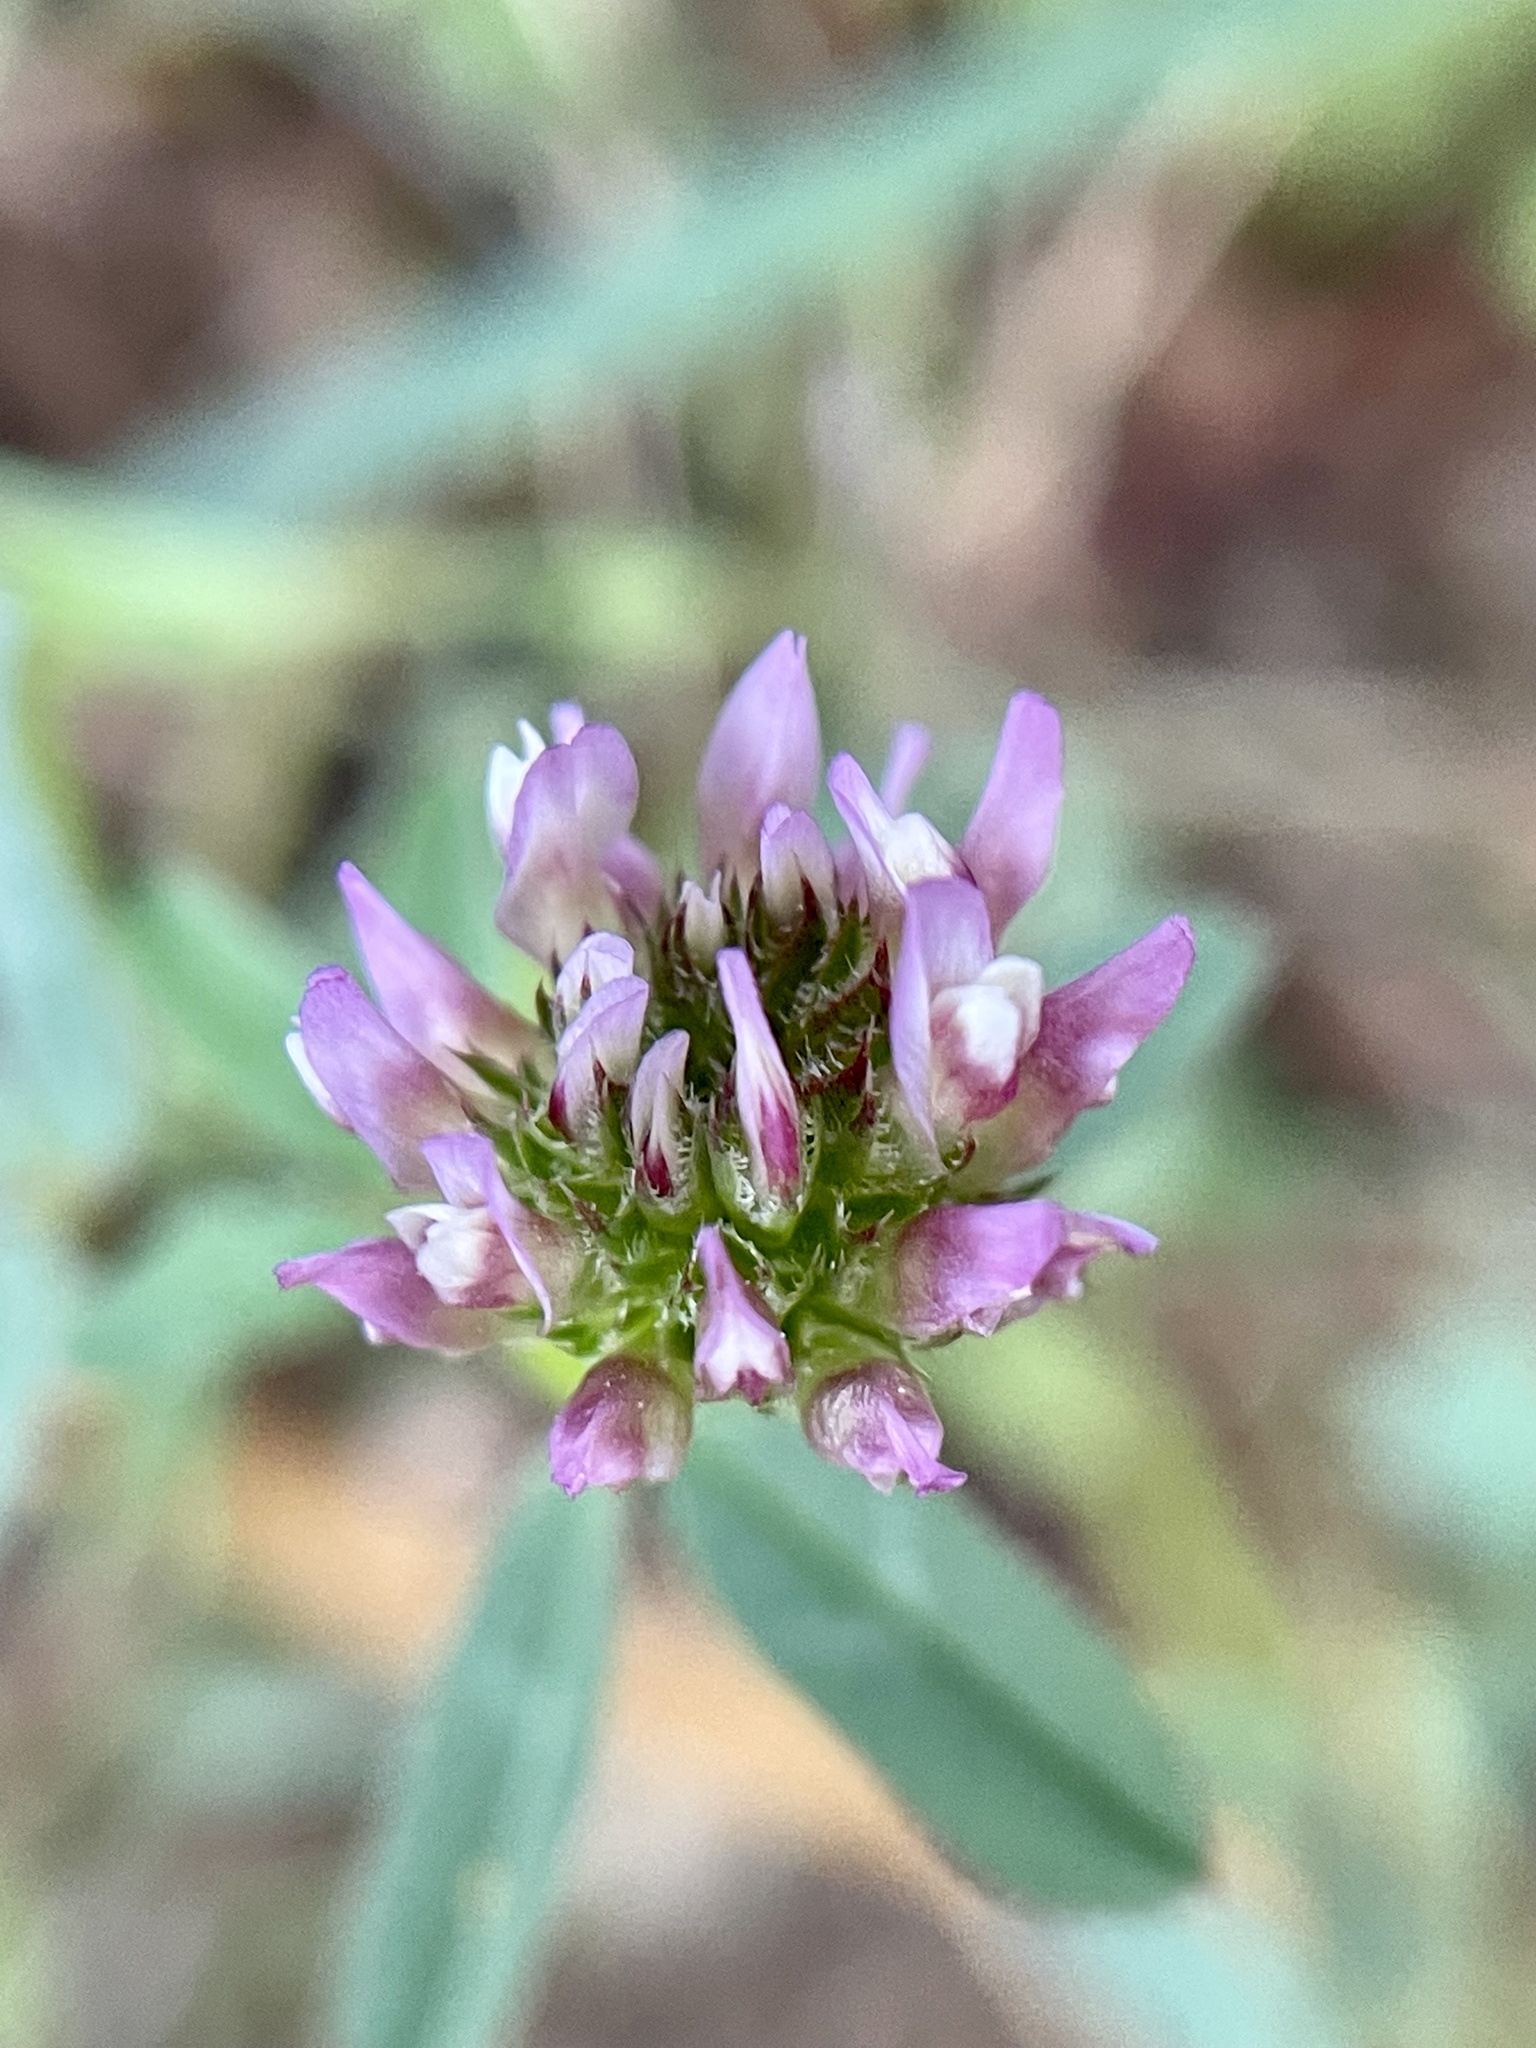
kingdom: Plantae
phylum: Tracheophyta
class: Magnoliopsida
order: Fabales
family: Fabaceae
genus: Trifolium
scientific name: Trifolium ciliolatum
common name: Foothill clover
